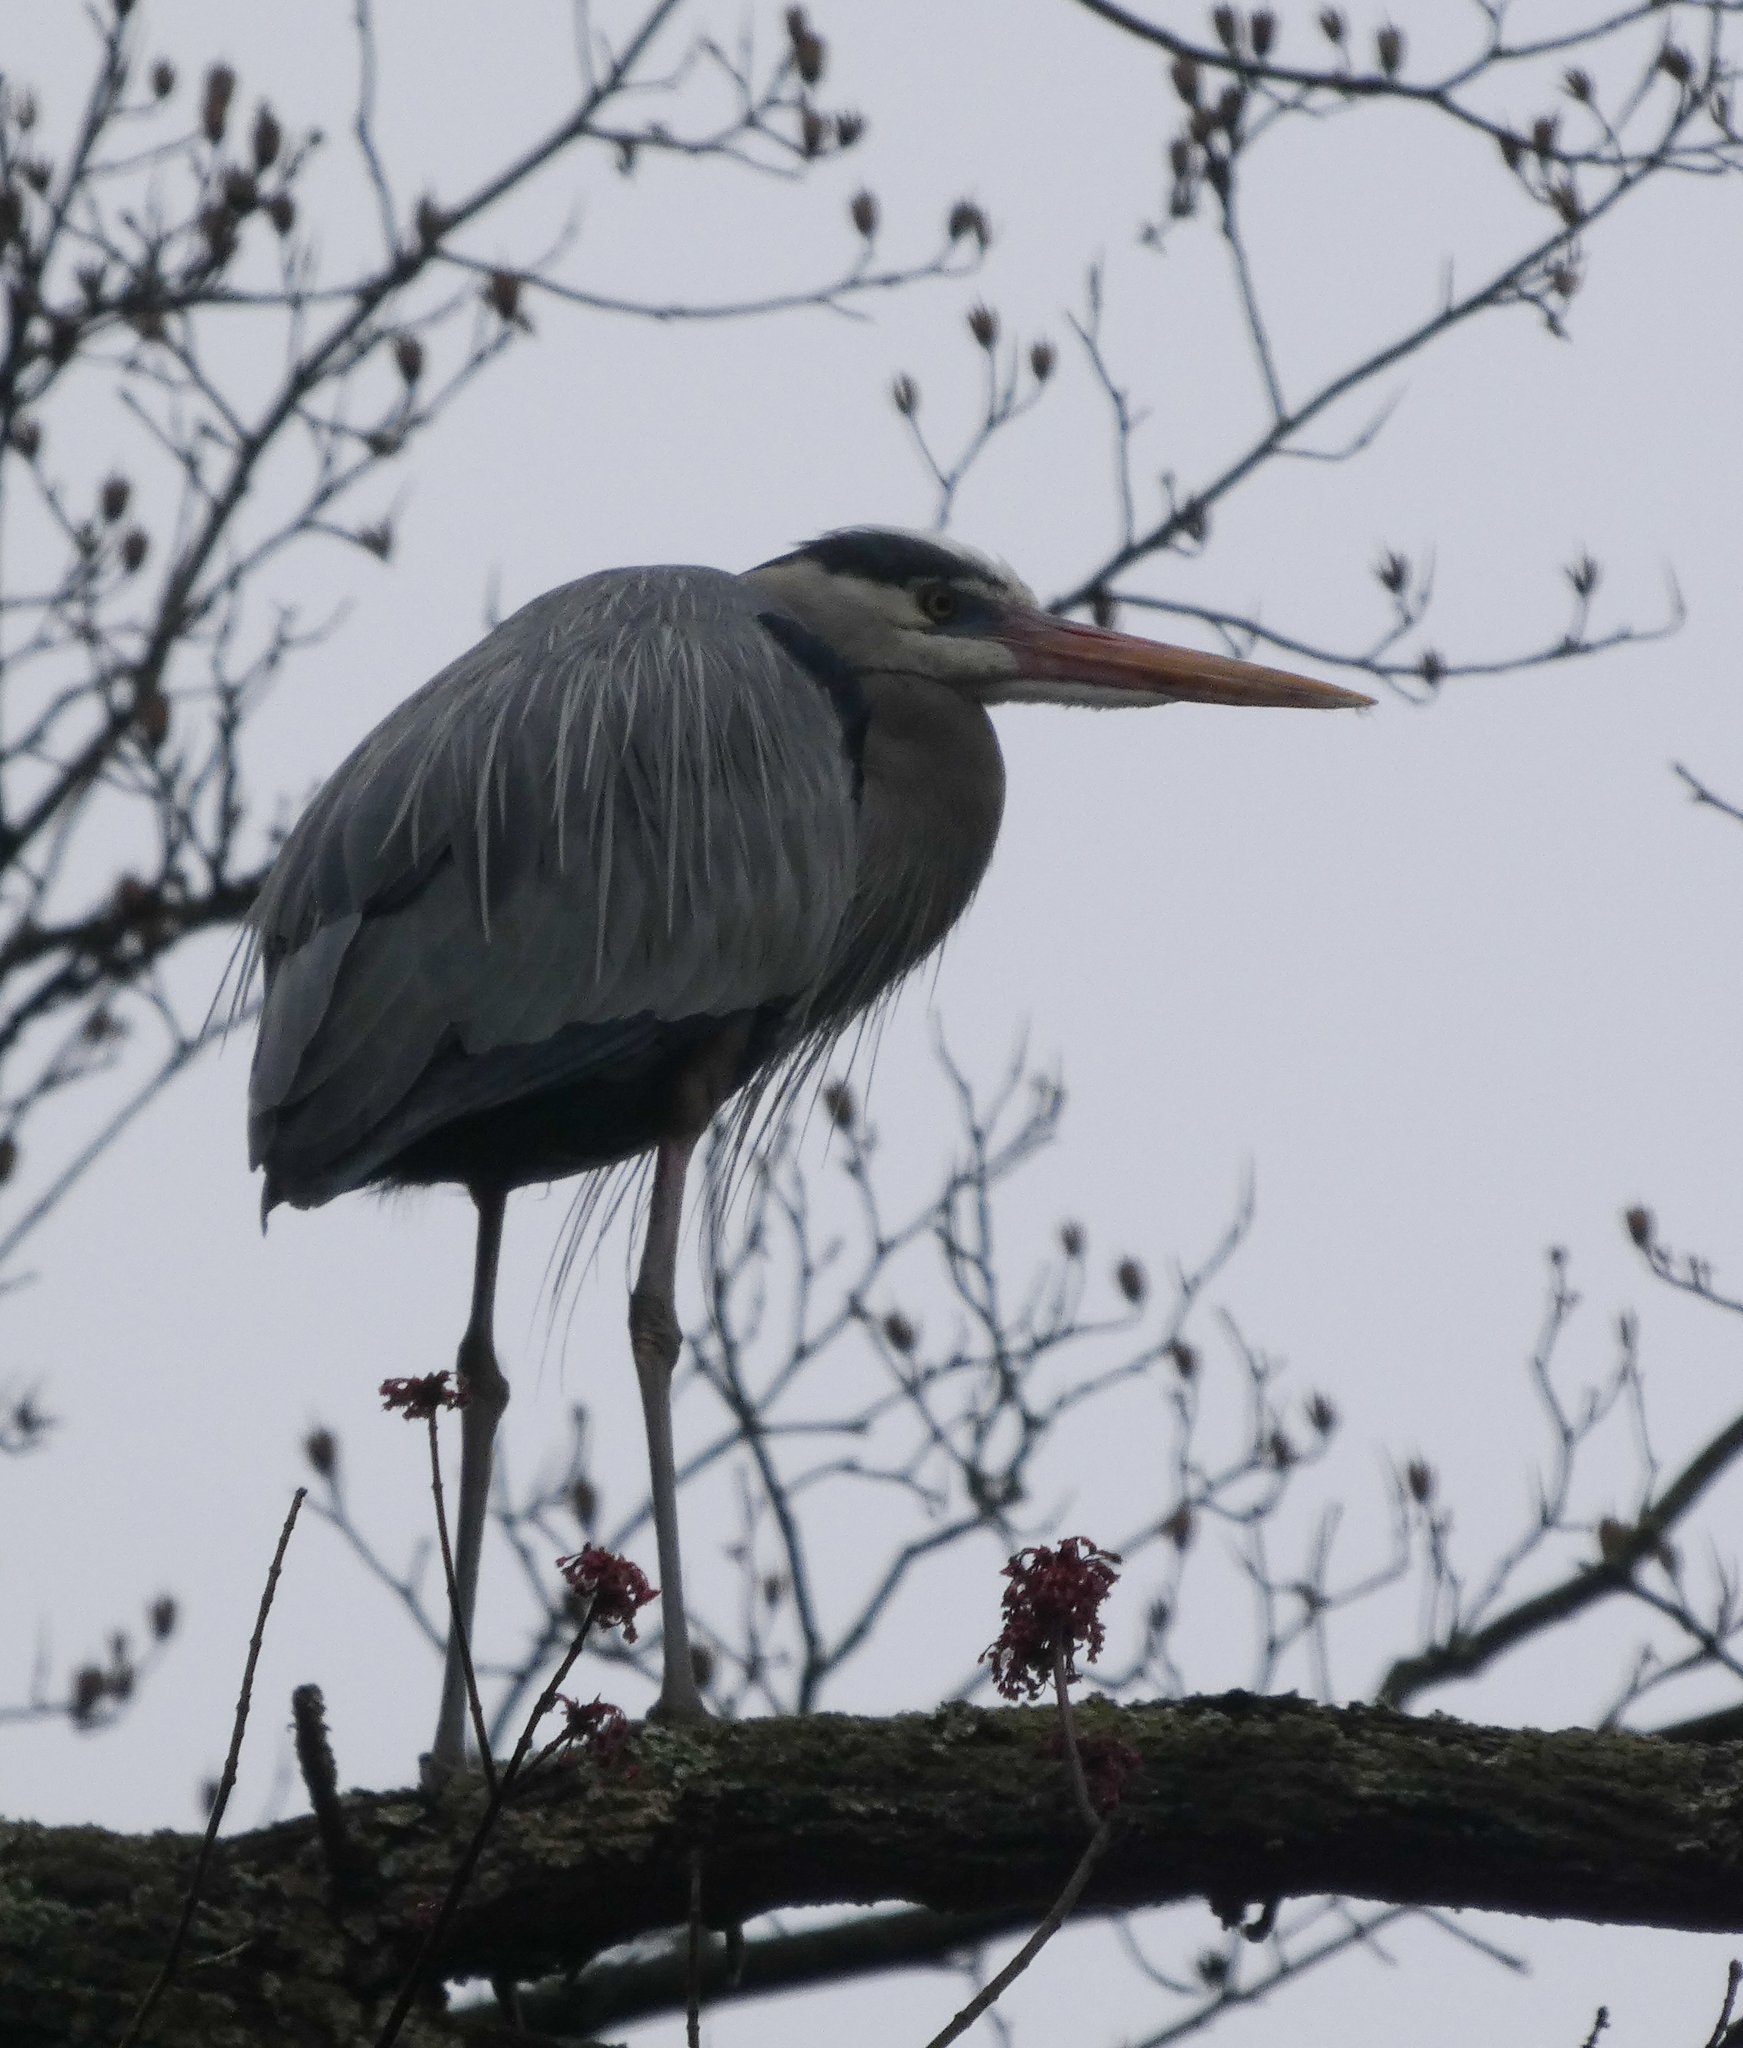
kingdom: Animalia
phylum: Chordata
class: Aves
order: Pelecaniformes
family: Ardeidae
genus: Ardea
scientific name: Ardea herodias
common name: Great blue heron
